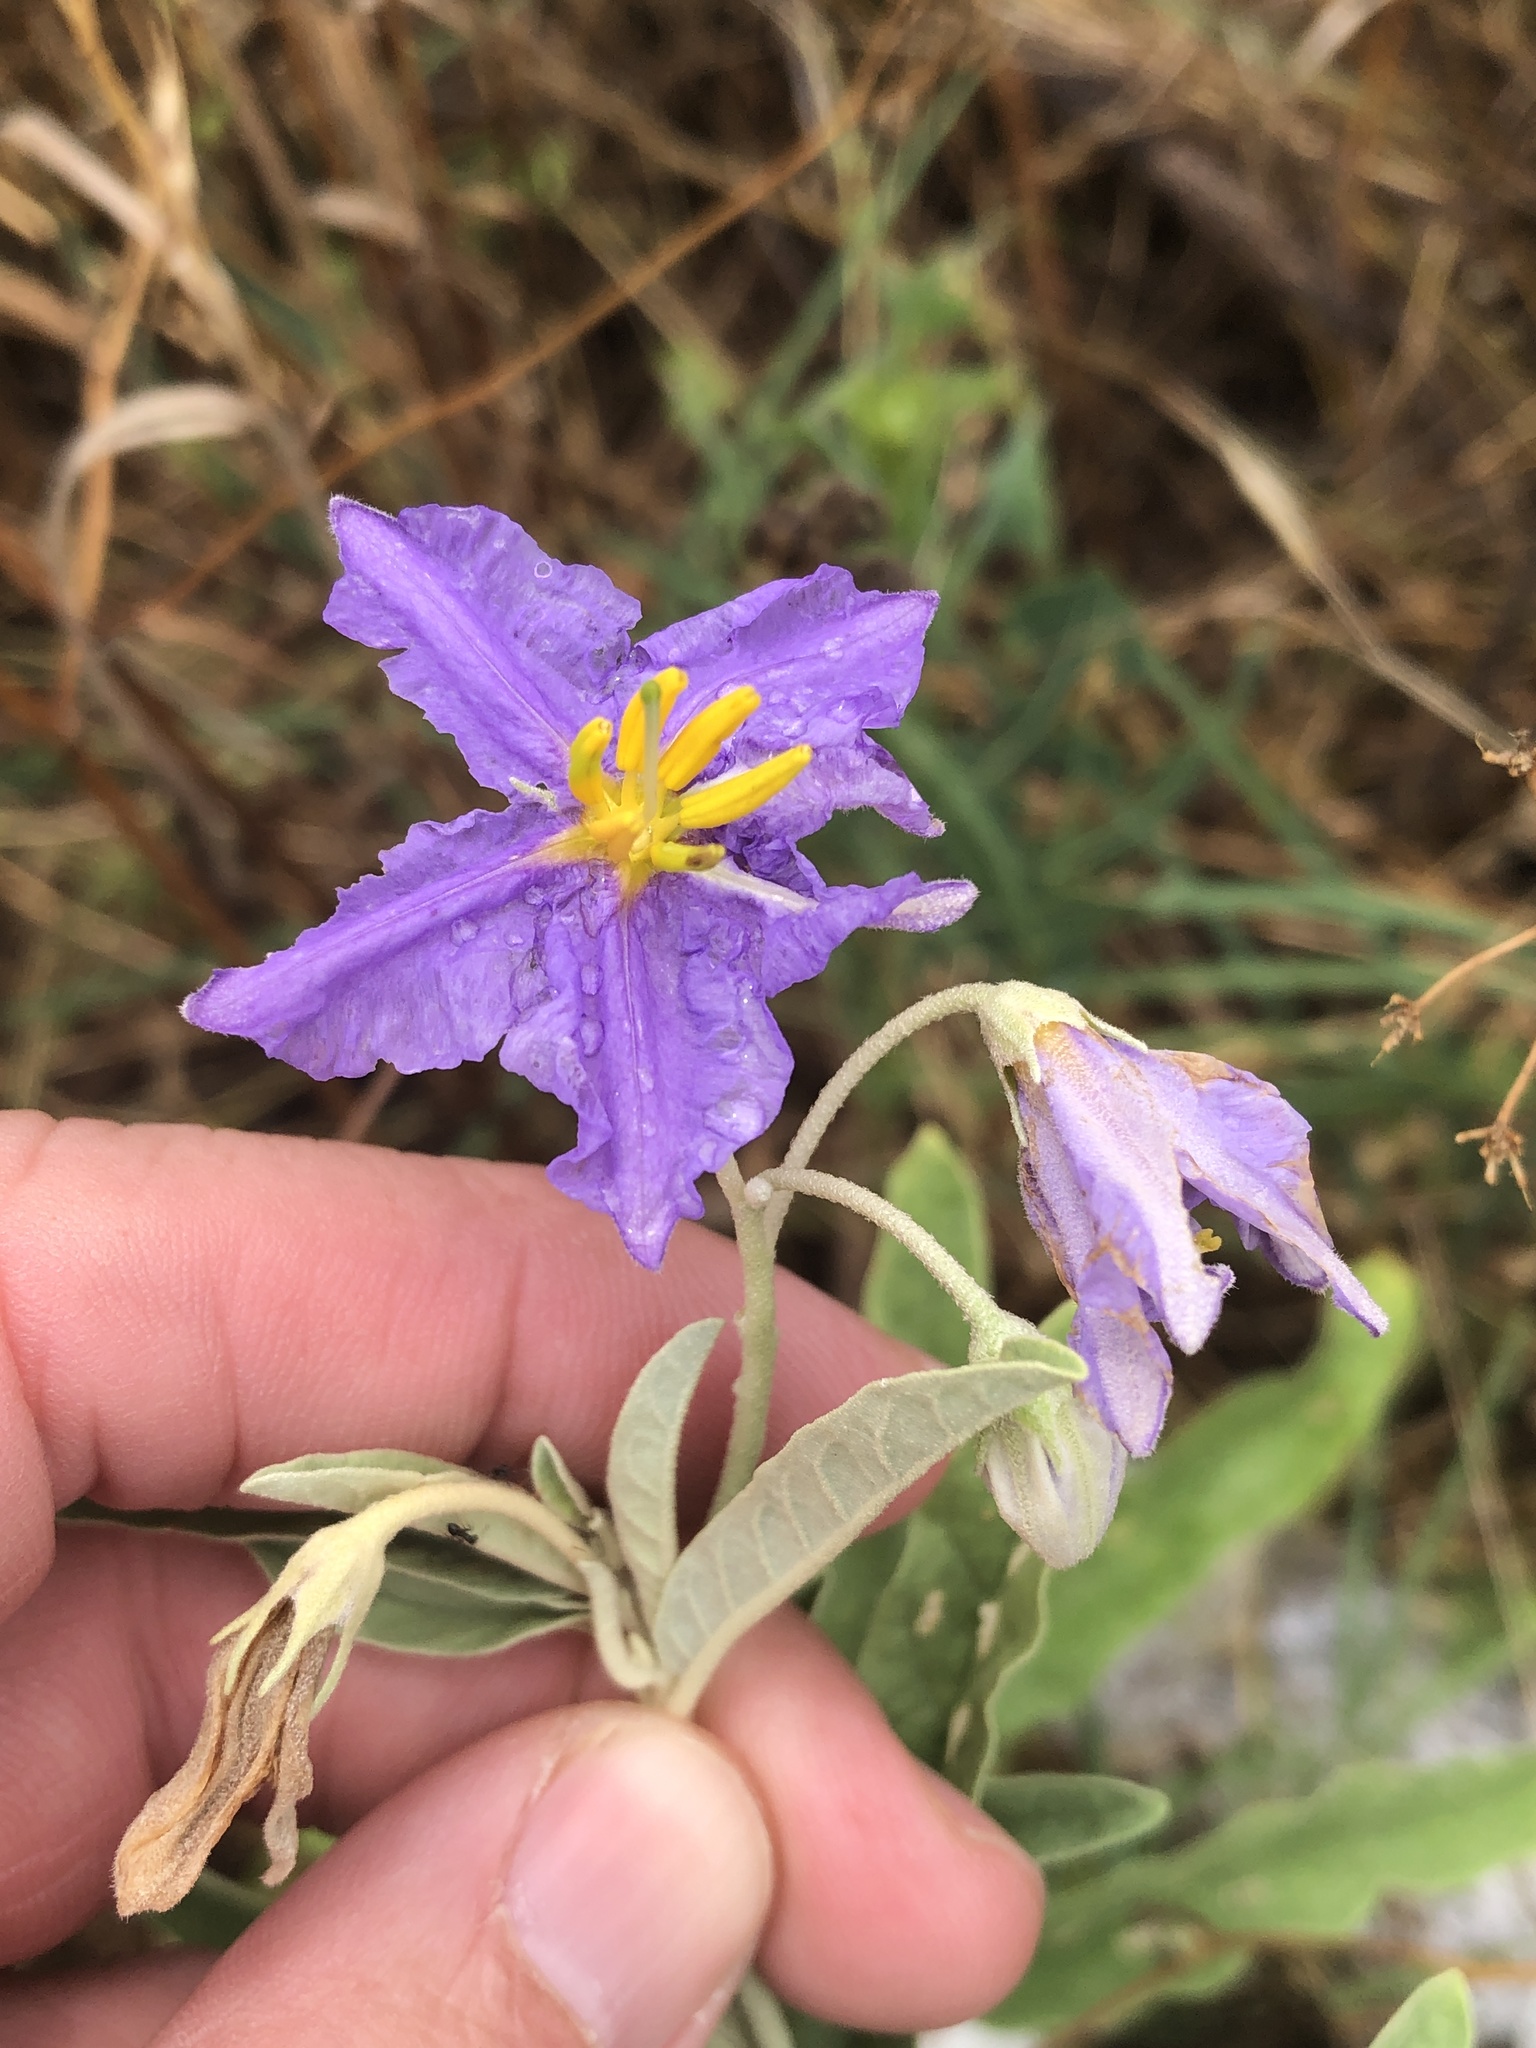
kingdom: Plantae
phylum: Tracheophyta
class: Magnoliopsida
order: Solanales
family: Solanaceae
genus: Solanum
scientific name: Solanum elaeagnifolium
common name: Silverleaf nightshade
